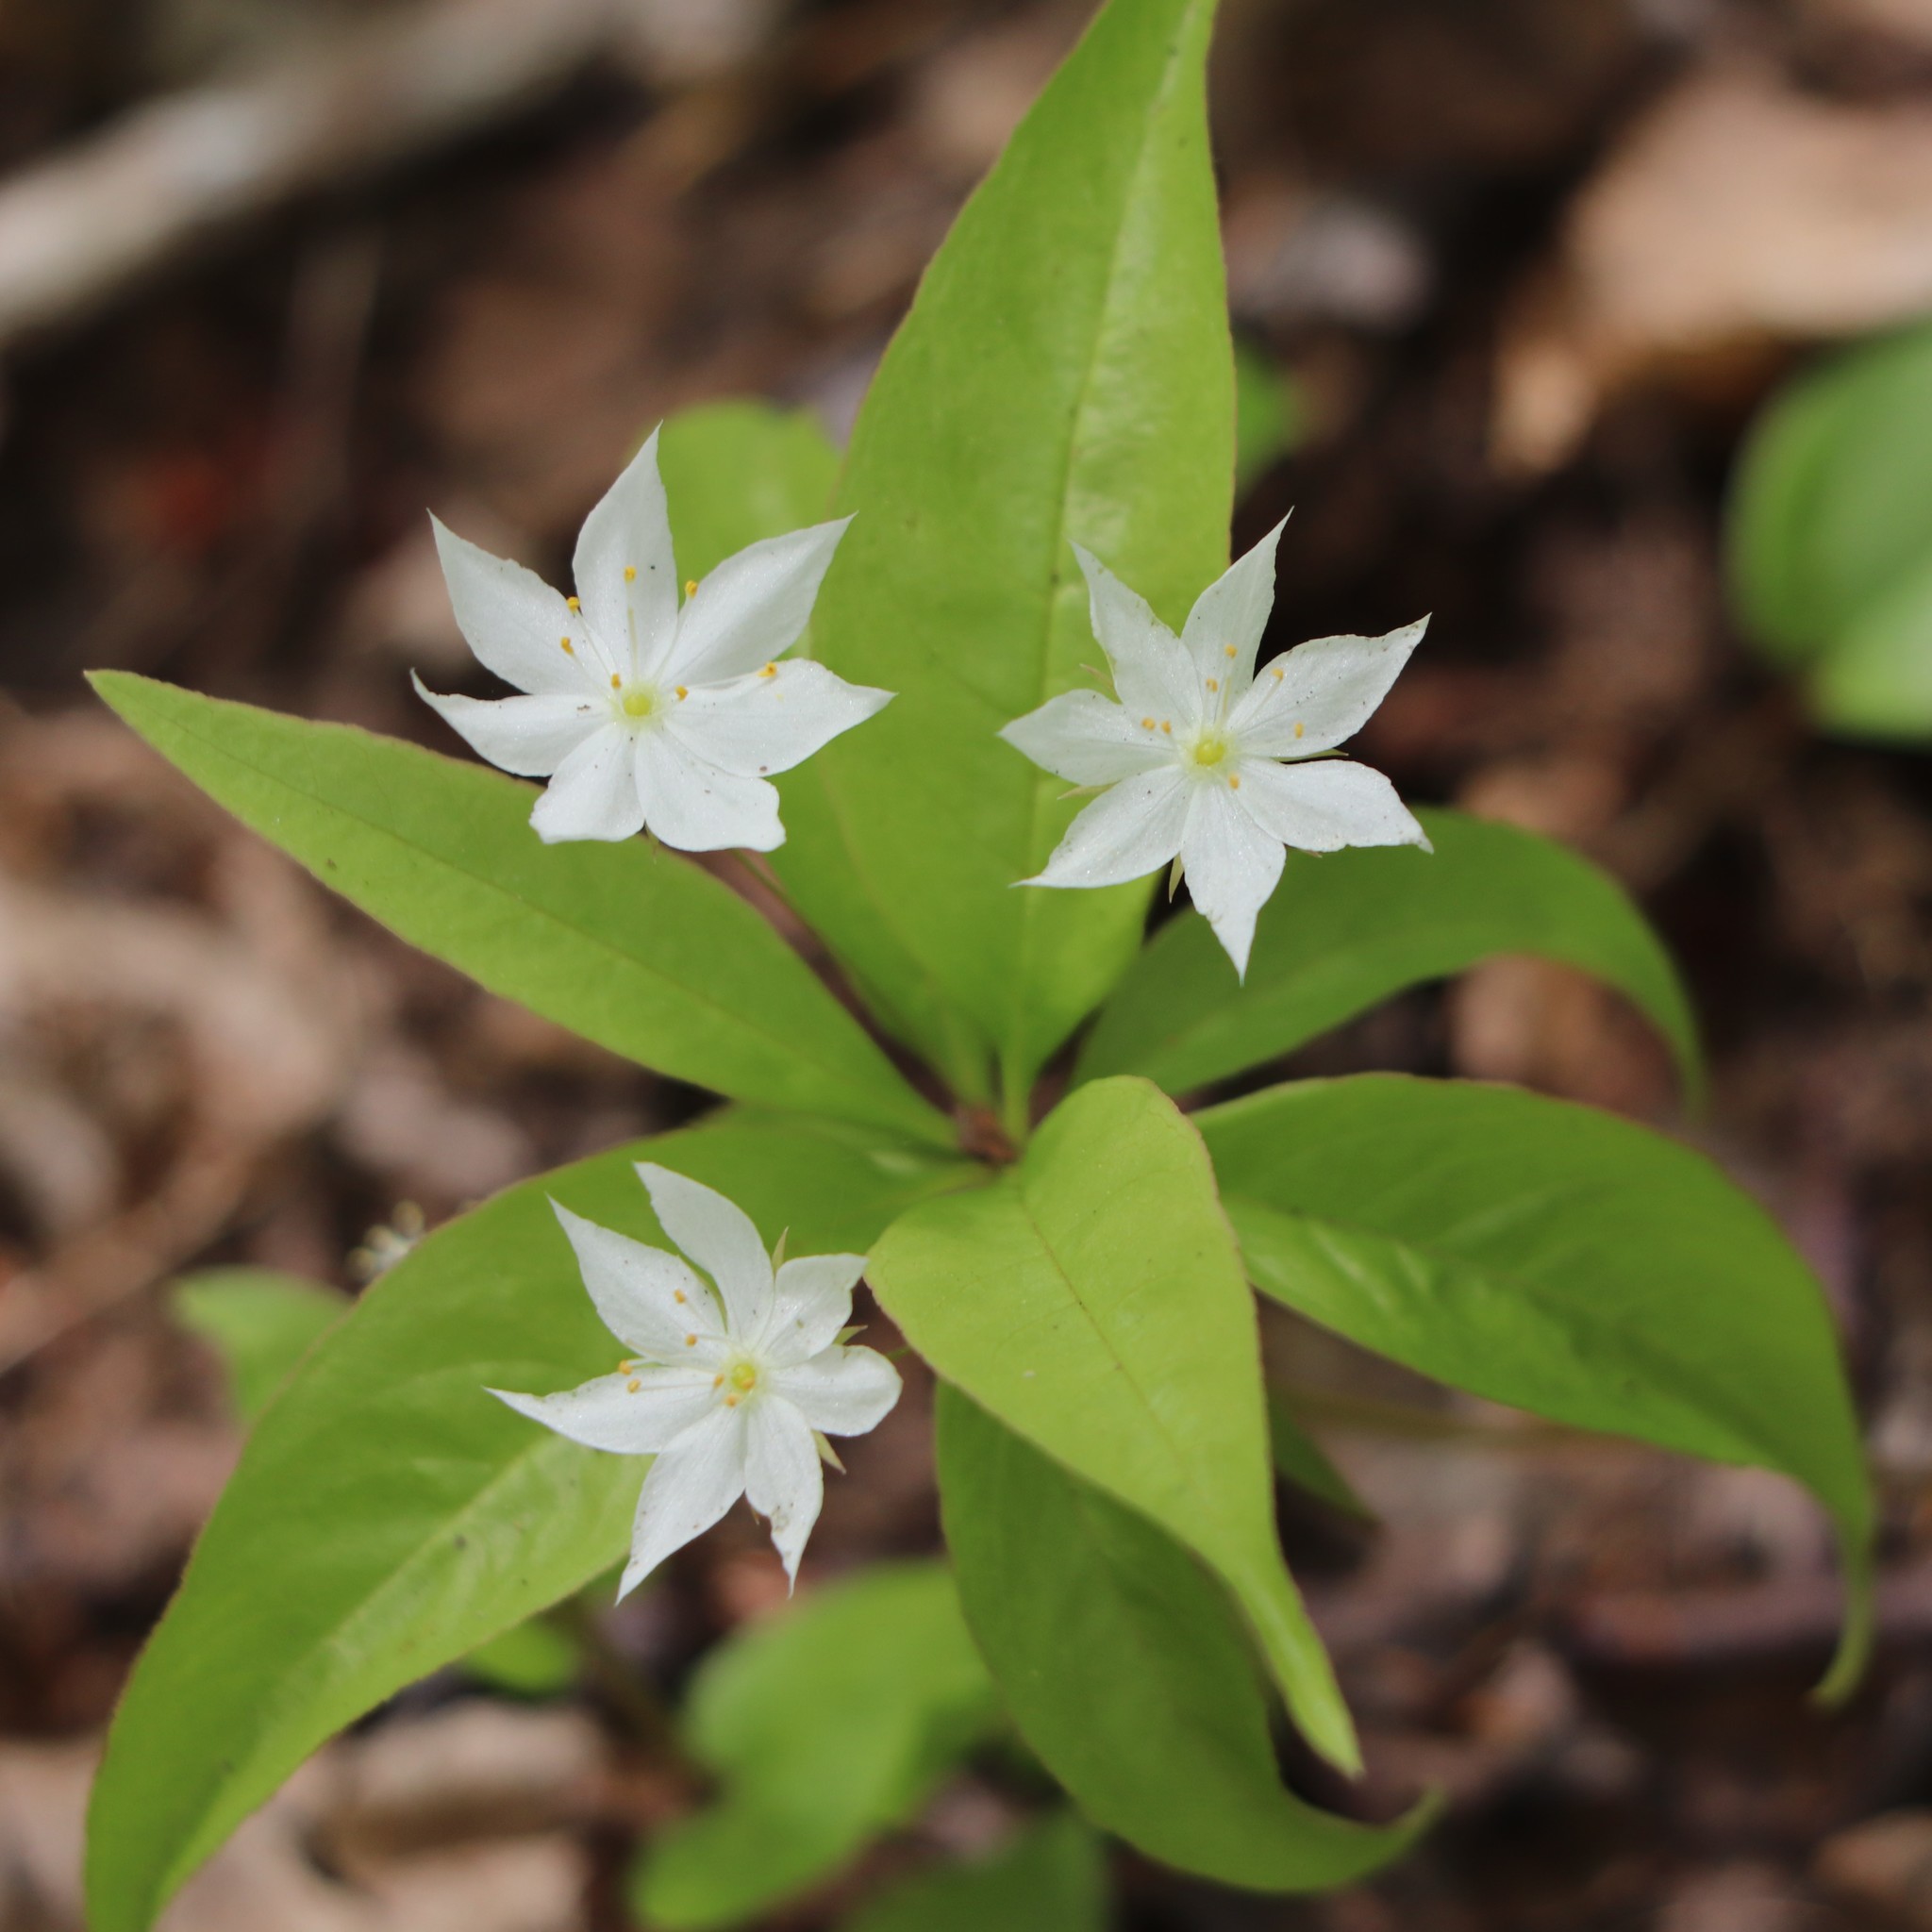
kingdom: Plantae
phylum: Tracheophyta
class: Magnoliopsida
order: Ericales
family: Primulaceae
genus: Lysimachia
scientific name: Lysimachia borealis
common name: American starflower
